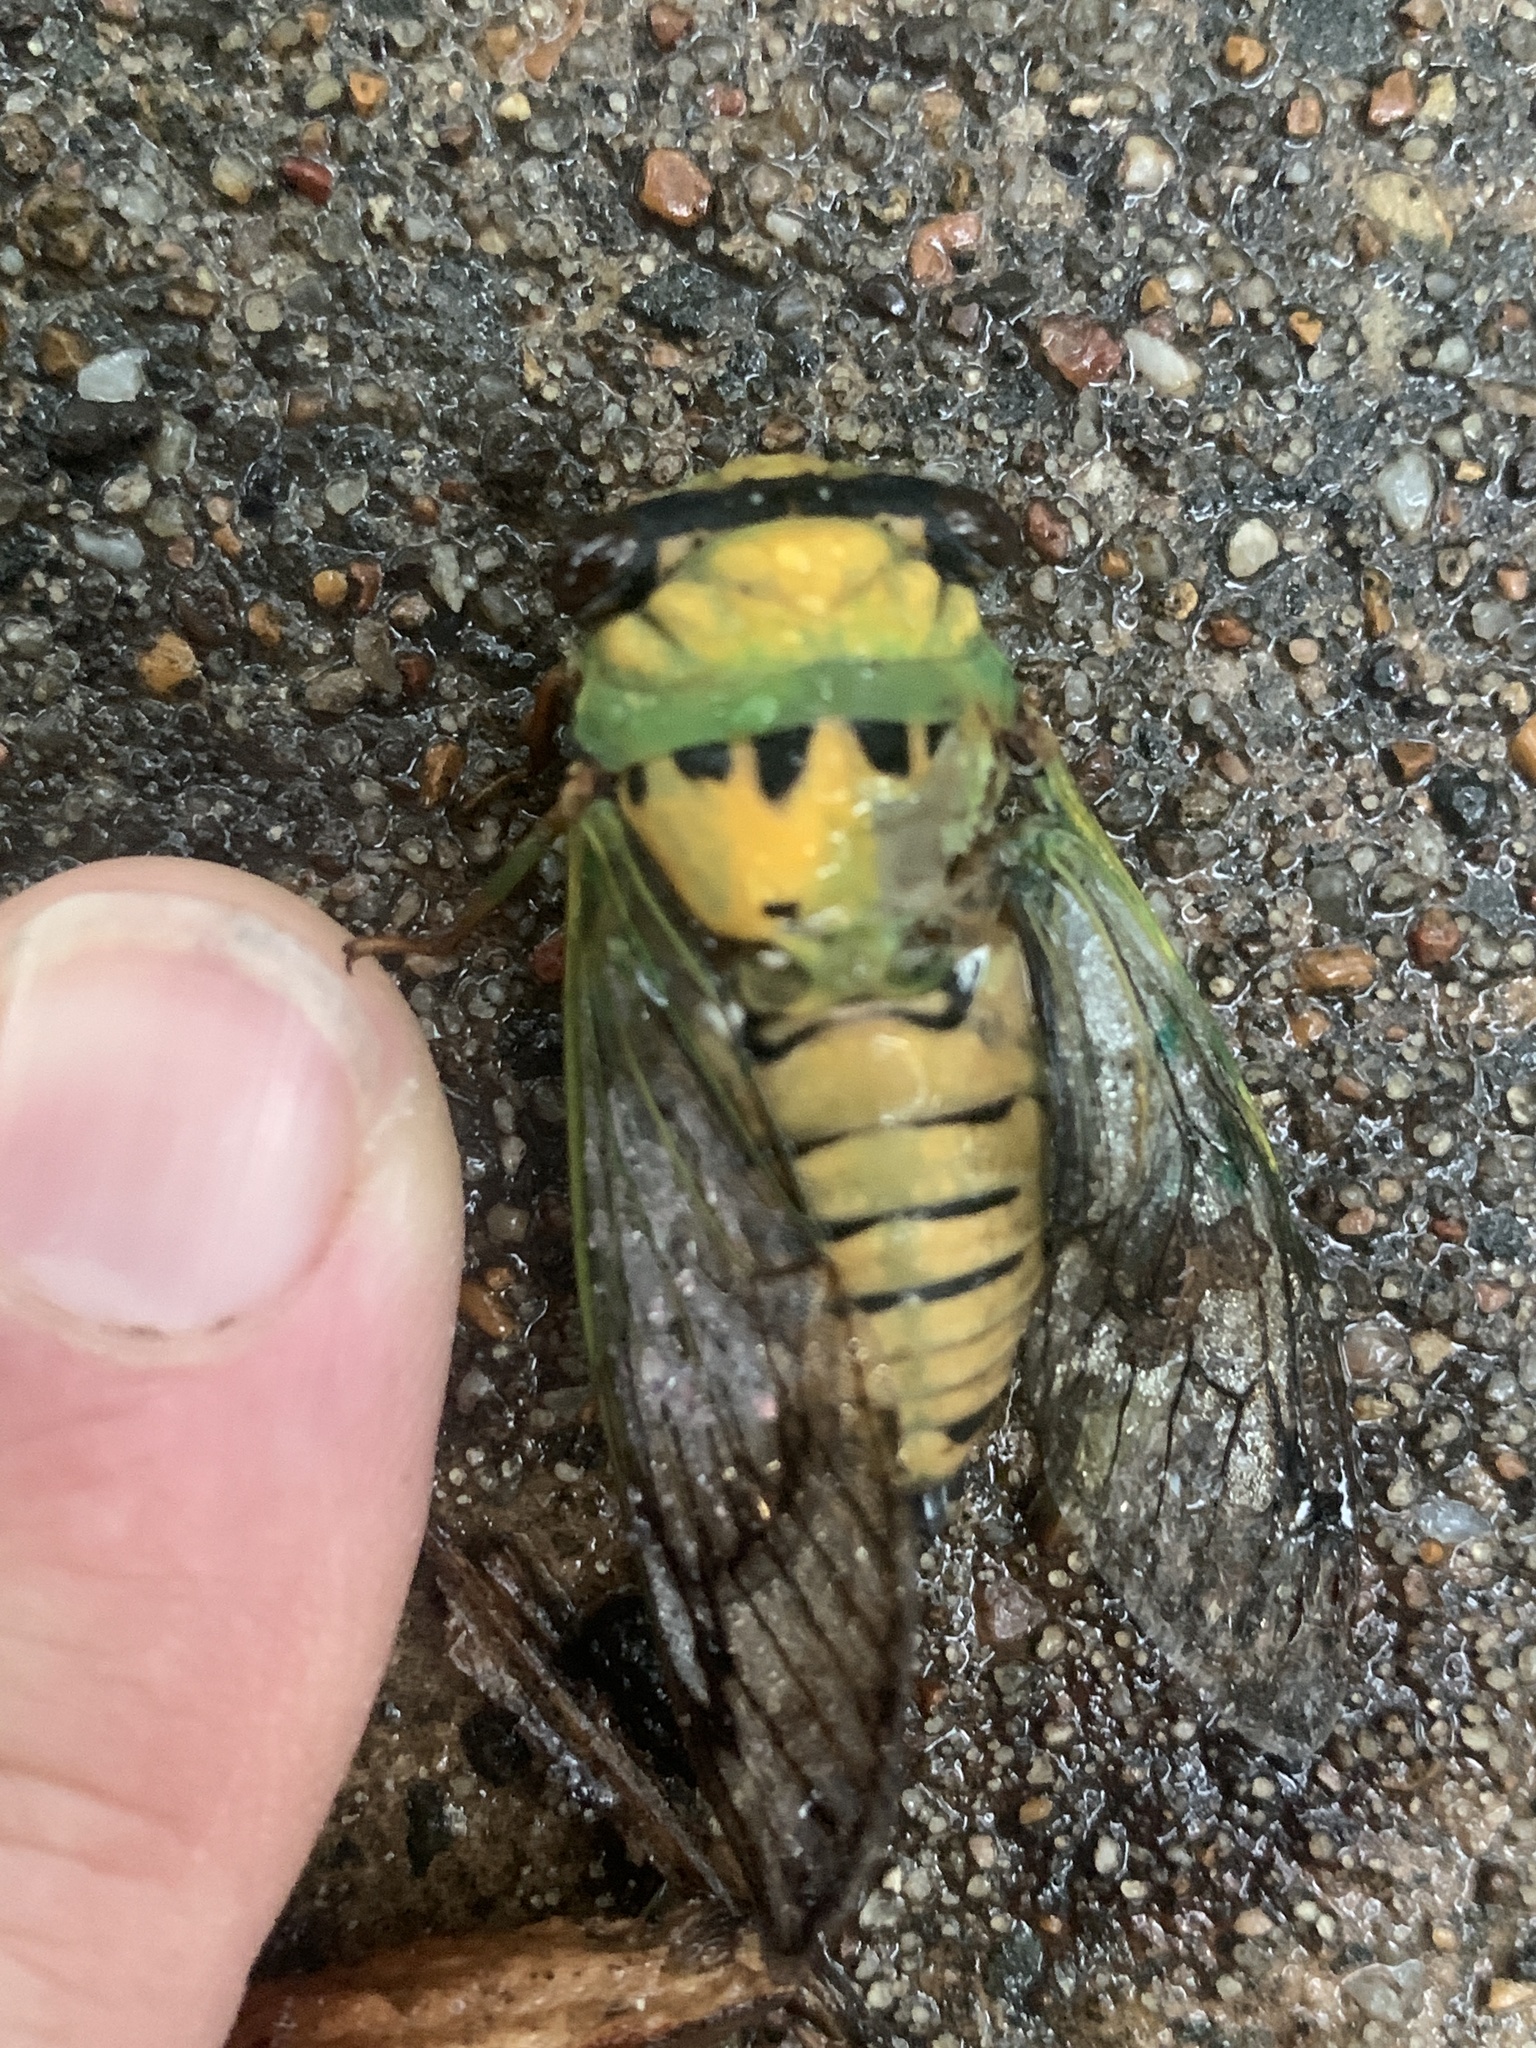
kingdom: Animalia
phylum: Arthropoda
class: Insecta
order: Hemiptera
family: Cicadidae
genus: Neotibicen
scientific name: Neotibicen superbus
